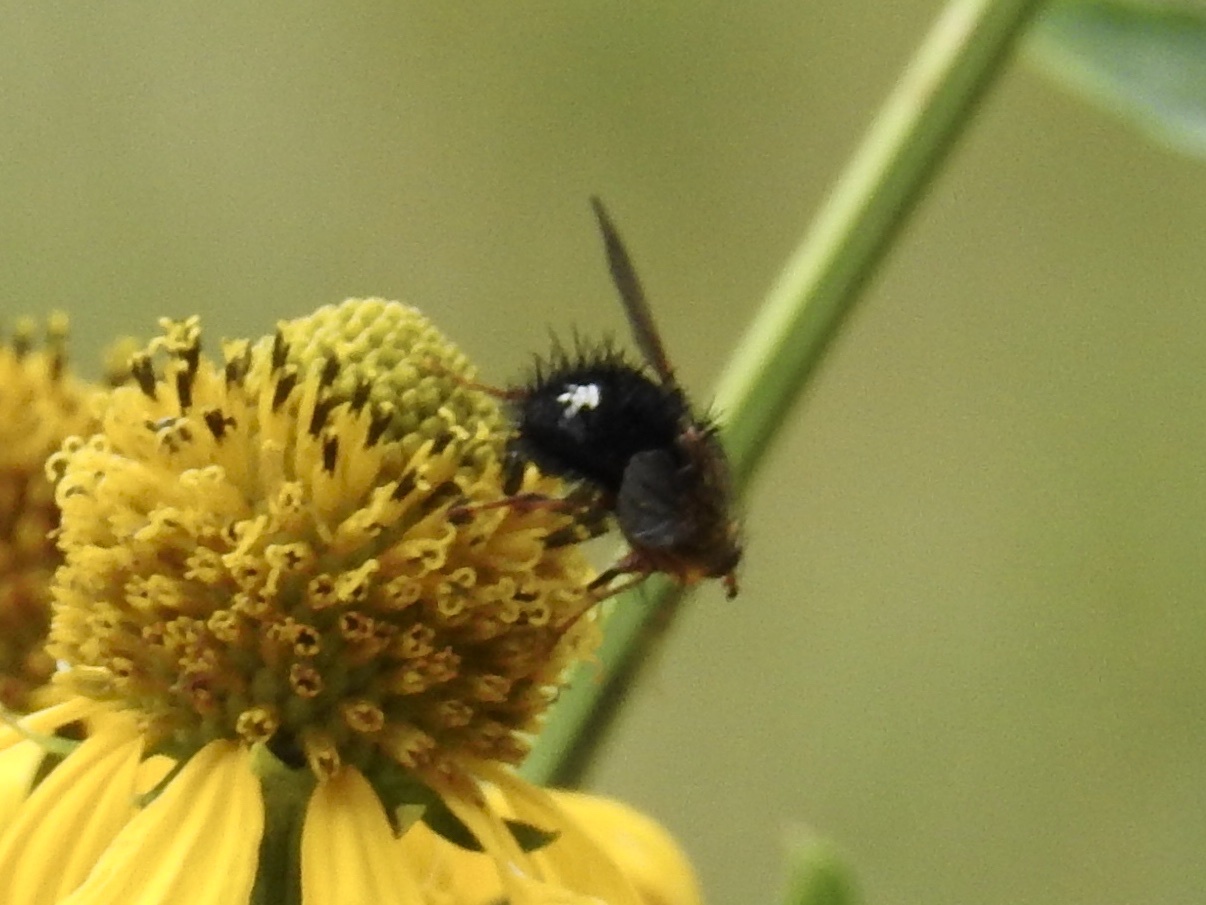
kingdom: Animalia
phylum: Arthropoda
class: Insecta
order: Diptera
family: Tachinidae
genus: Epalpus
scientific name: Epalpus albomaculatus
